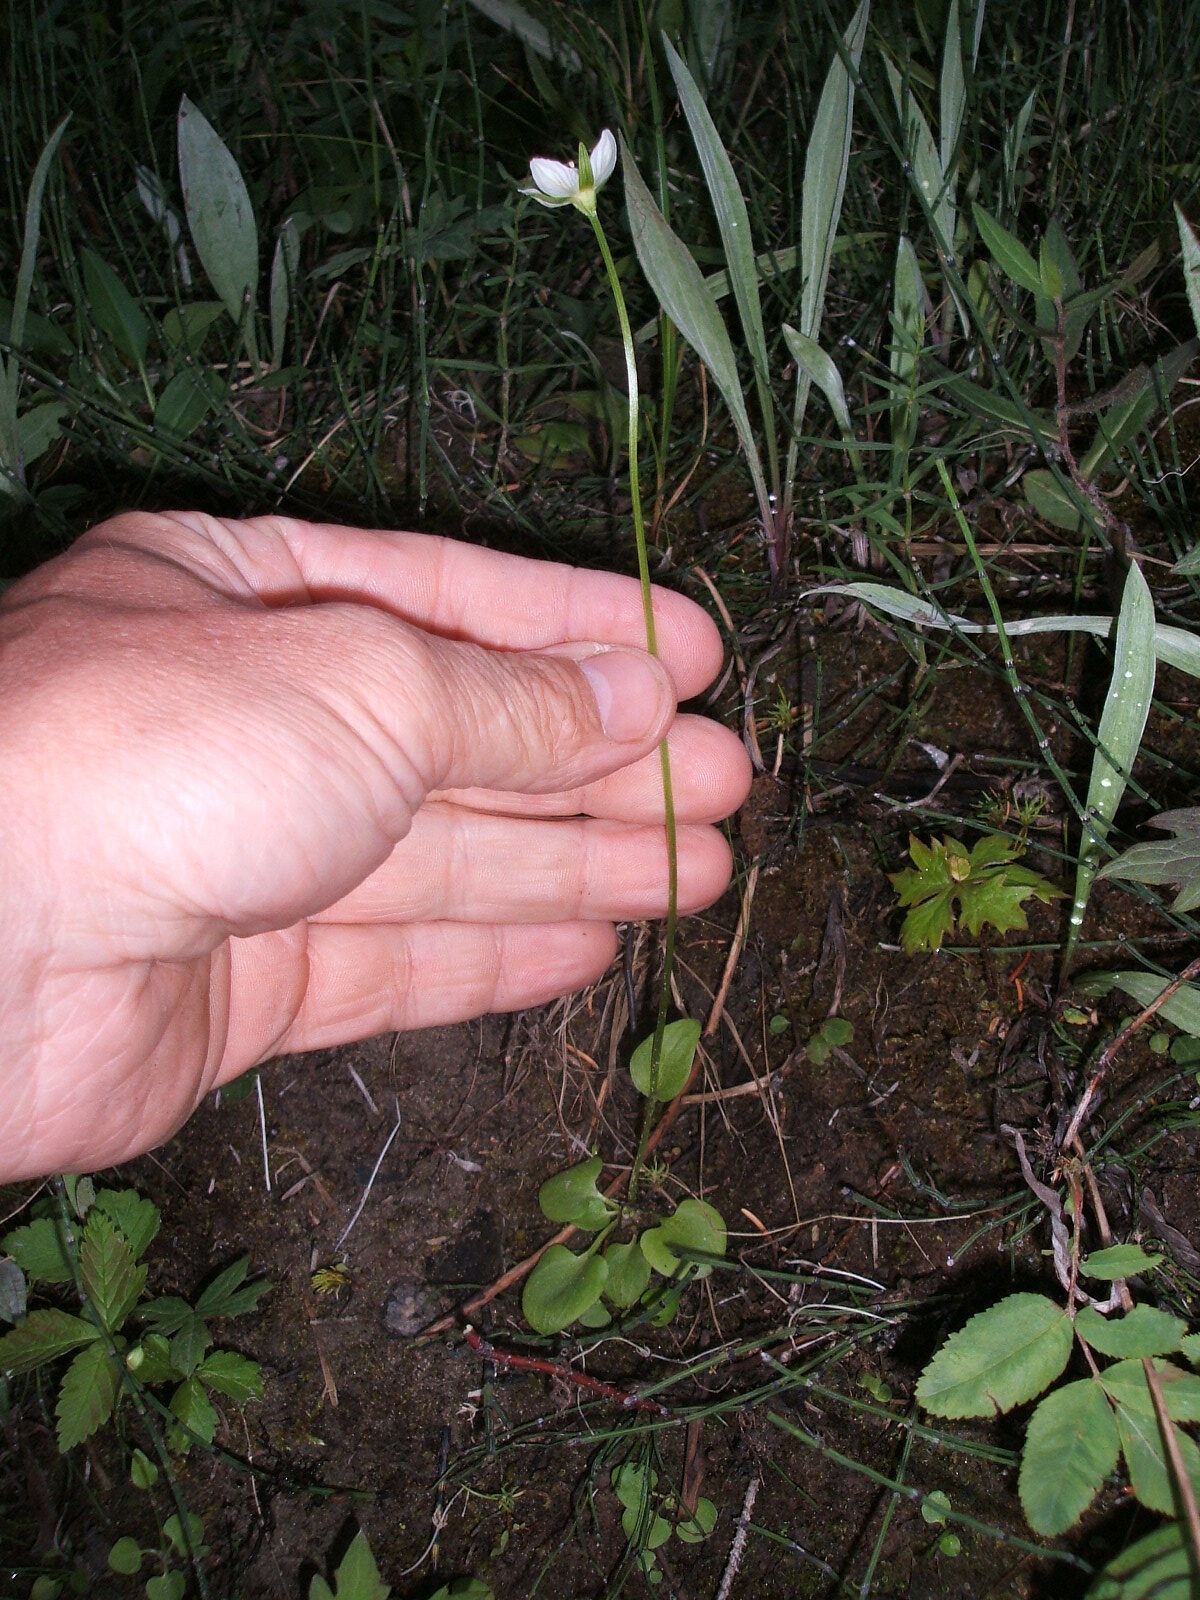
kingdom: Plantae
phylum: Tracheophyta
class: Magnoliopsida
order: Celastrales
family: Parnassiaceae
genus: Parnassia
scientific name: Parnassia palustris
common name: Grass-of-parnassus
